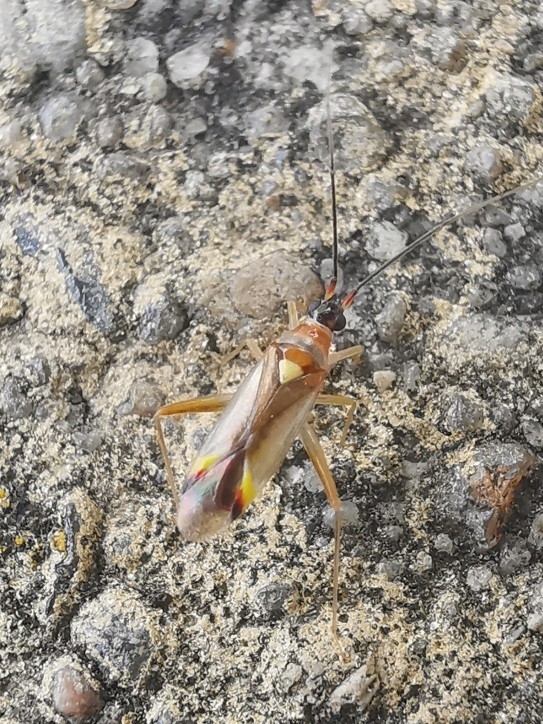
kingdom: Animalia
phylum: Arthropoda
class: Insecta
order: Hemiptera
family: Miridae
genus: Campyloneura
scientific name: Campyloneura virgula
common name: Predatory bug
